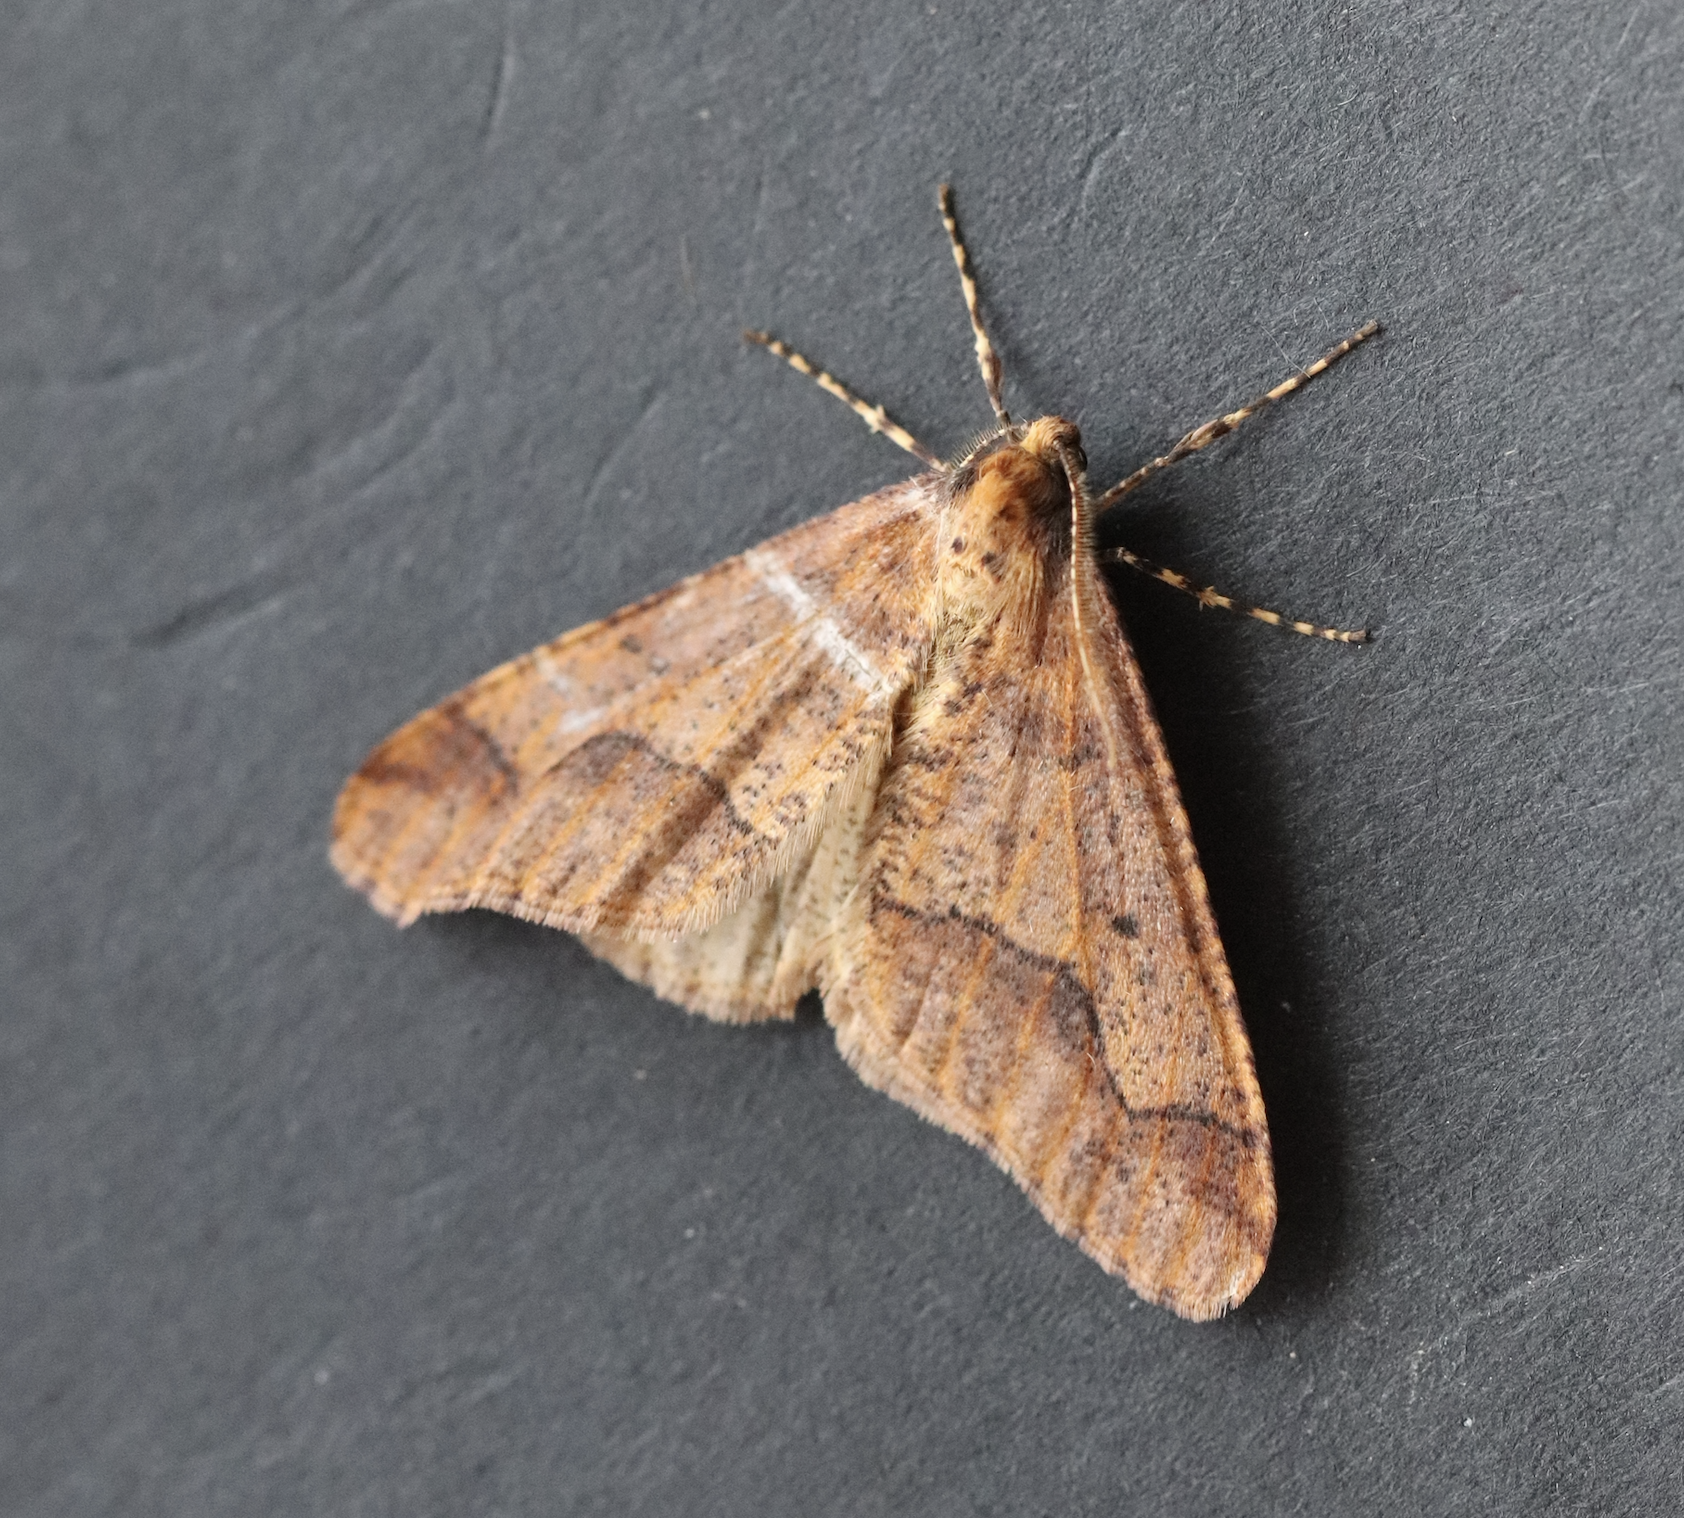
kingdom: Animalia
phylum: Arthropoda
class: Insecta
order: Lepidoptera
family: Geometridae
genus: Erannis
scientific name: Erannis defoliaria
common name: Mottled umber
